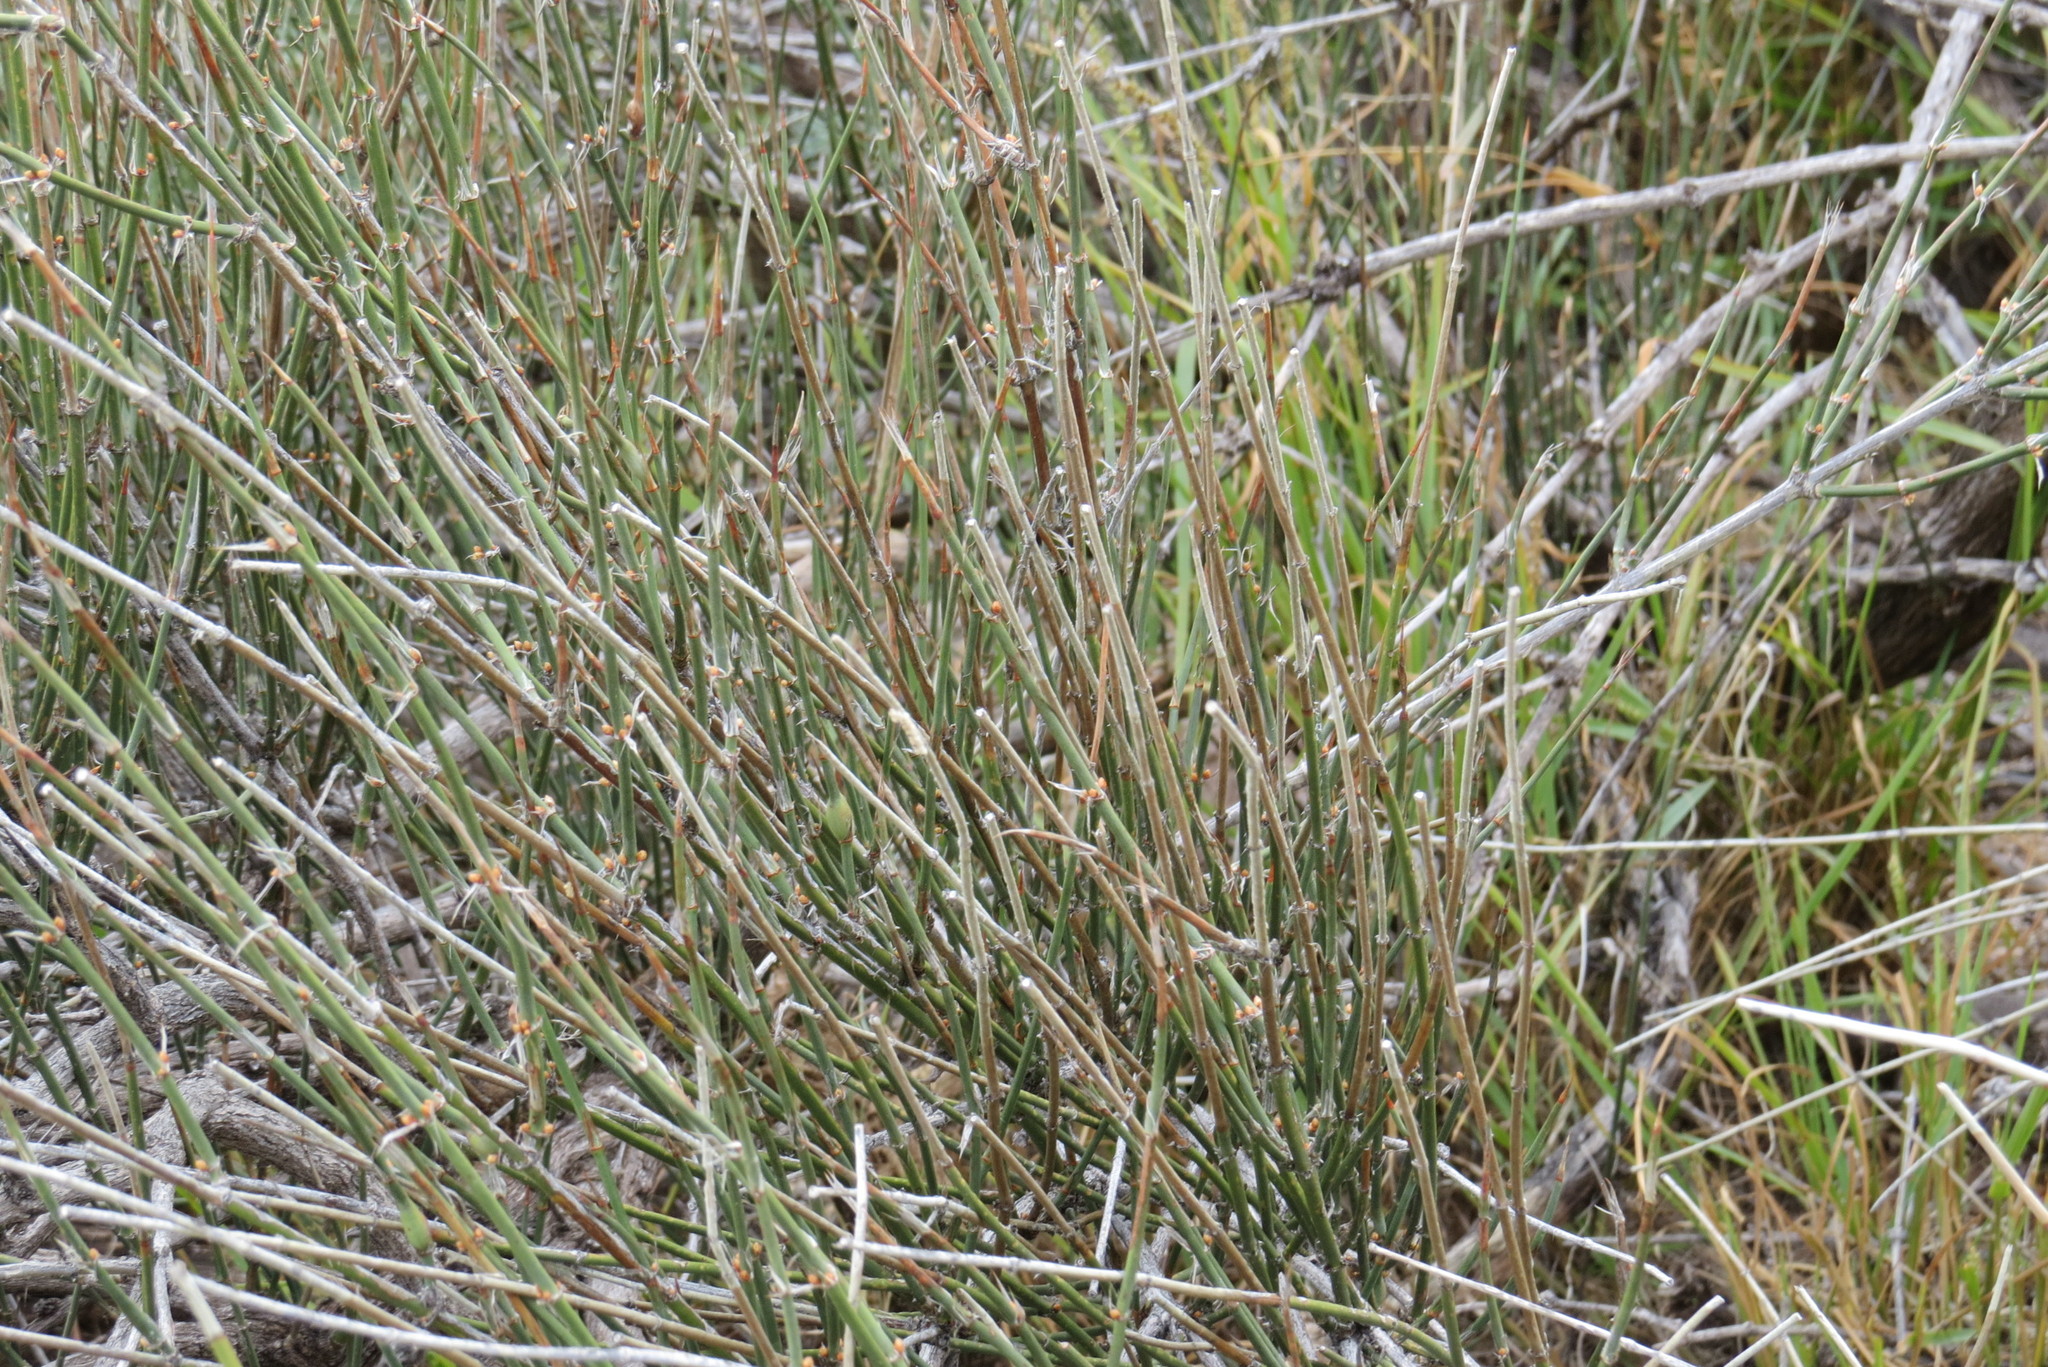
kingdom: Plantae
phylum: Tracheophyta
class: Gnetopsida
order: Ephedrales
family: Ephedraceae
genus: Ephedra
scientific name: Ephedra trifurca
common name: Mexican-tea
